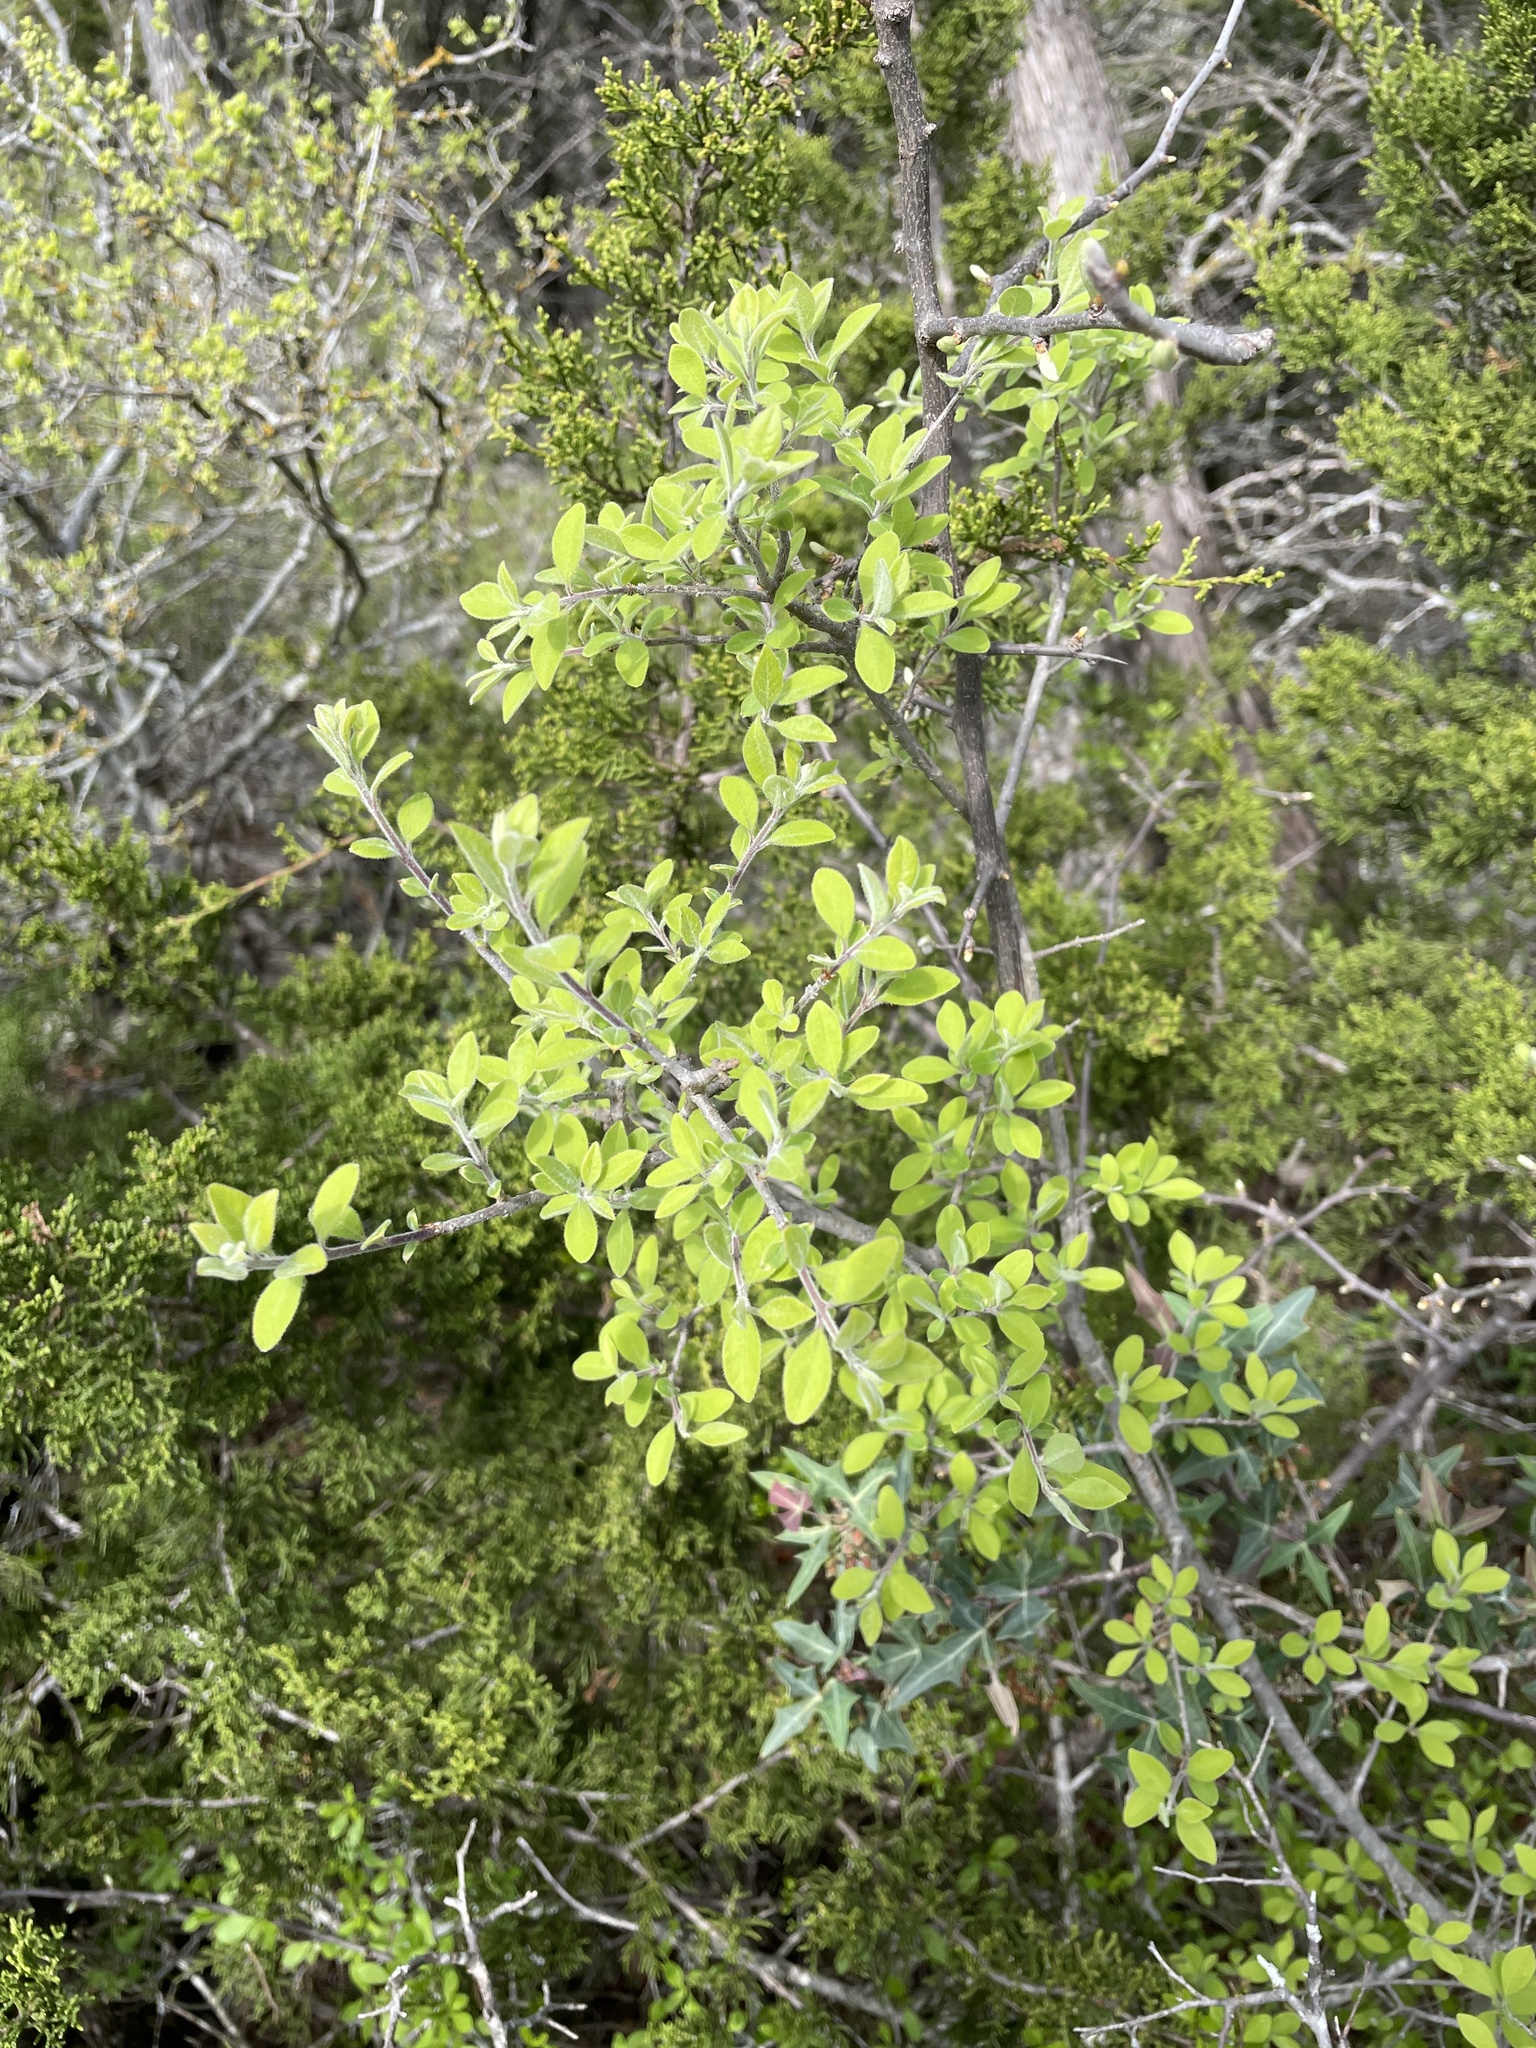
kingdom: Plantae
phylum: Tracheophyta
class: Magnoliopsida
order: Lamiales
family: Oleaceae
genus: Forestiera
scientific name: Forestiera pubescens
